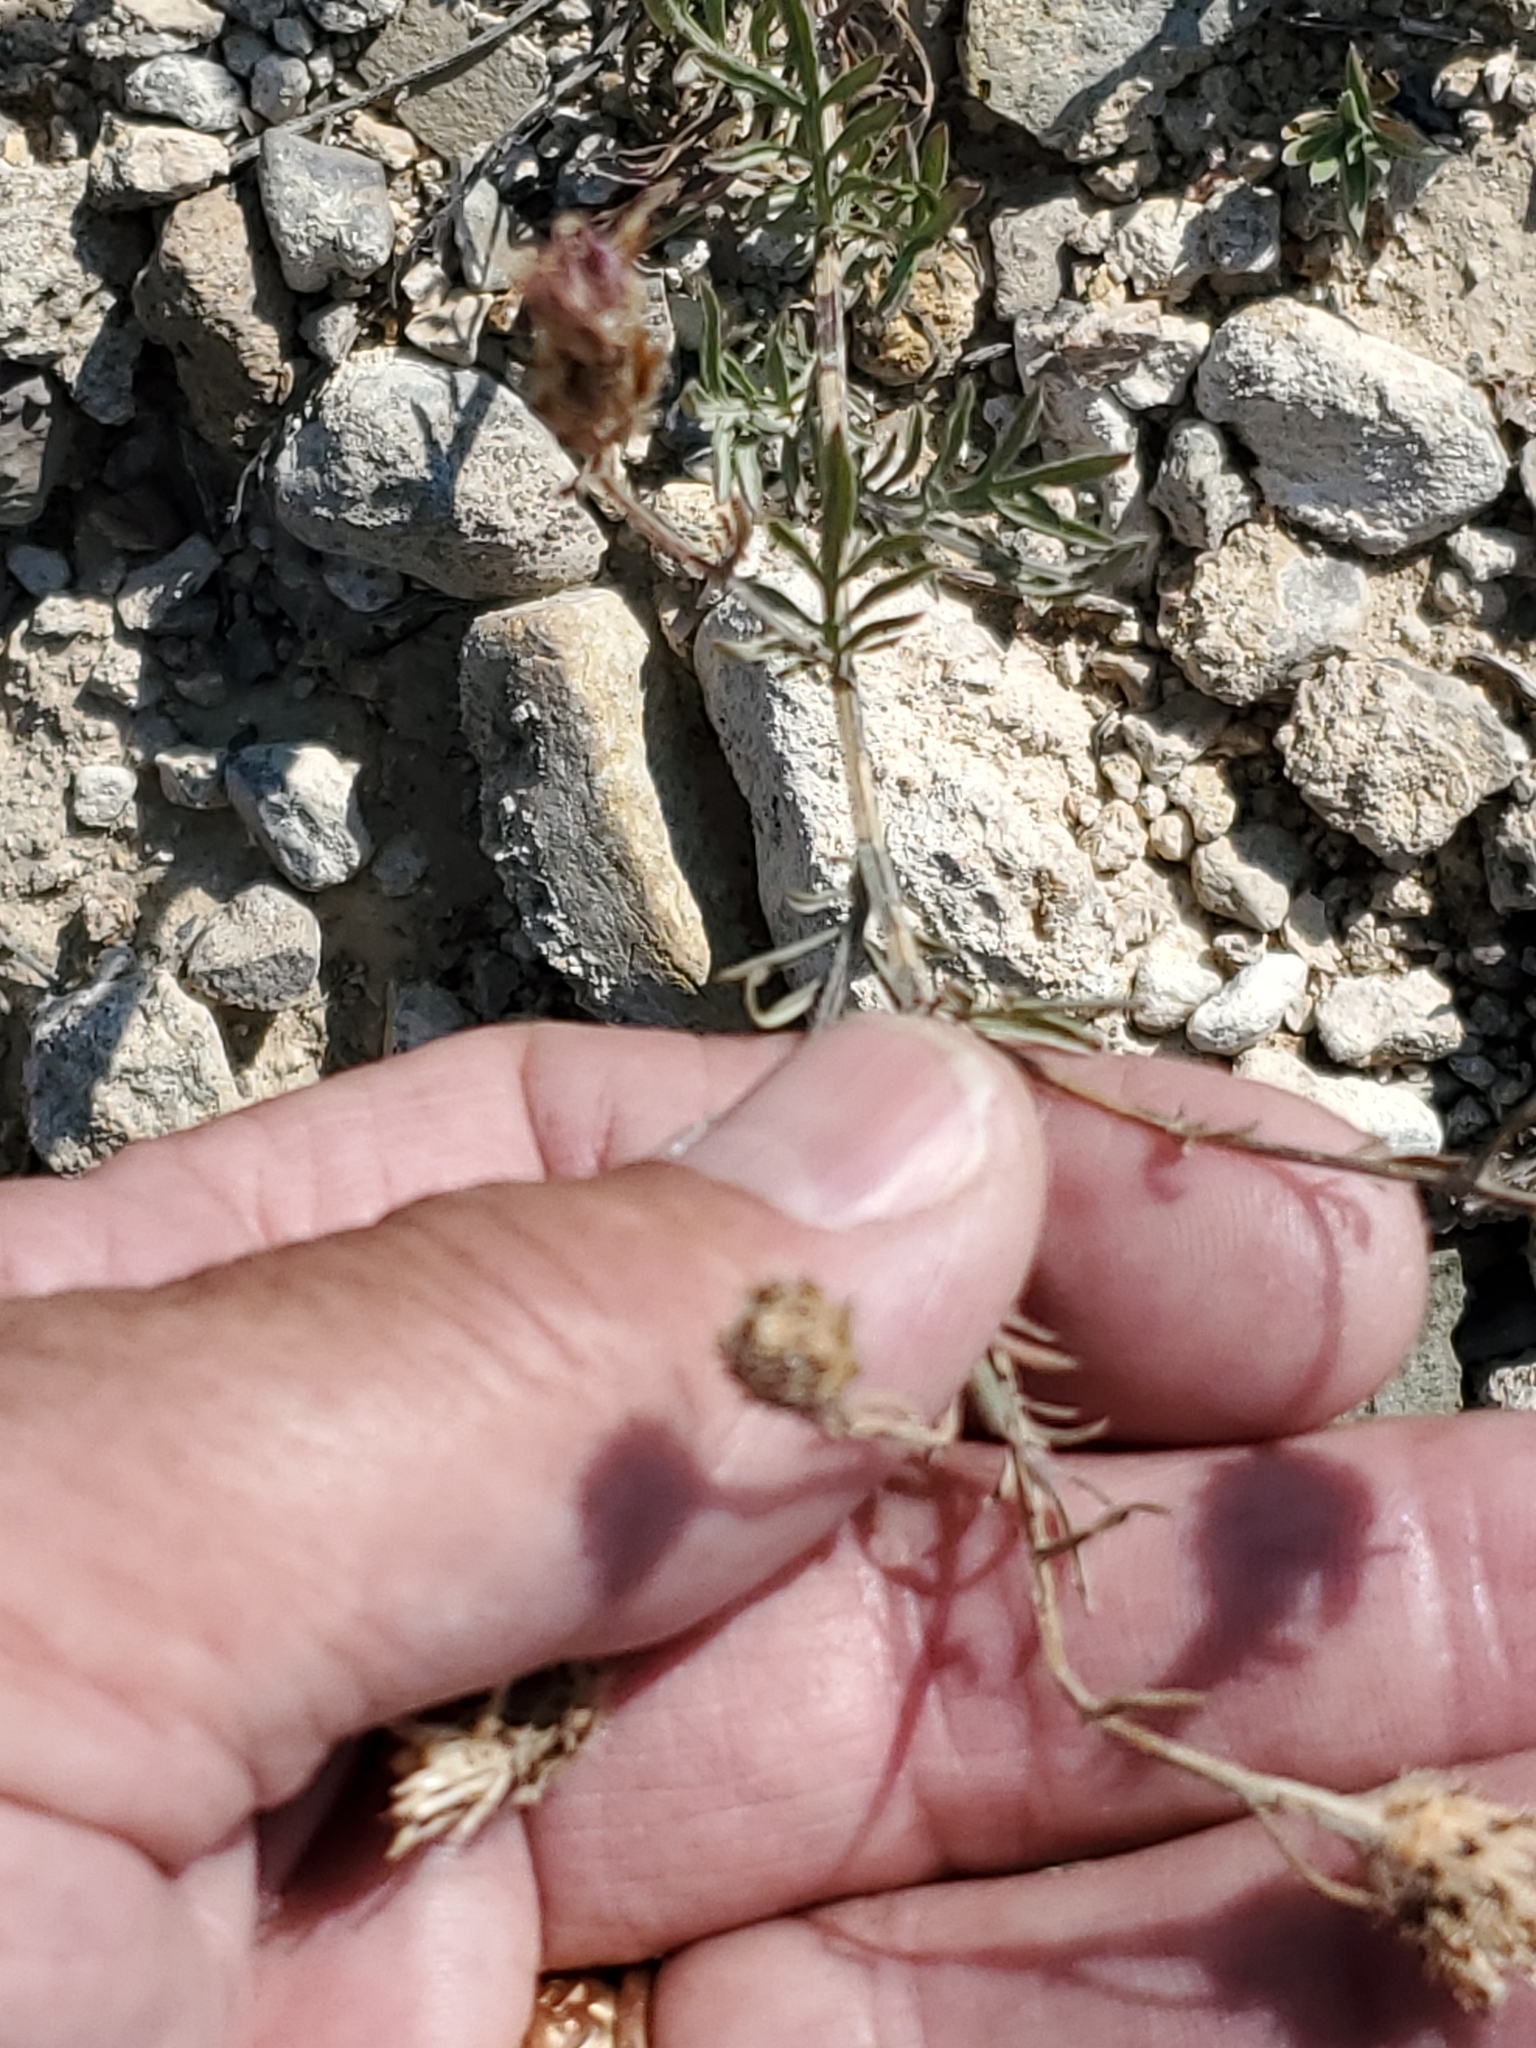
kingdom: Plantae
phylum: Tracheophyta
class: Magnoliopsida
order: Asterales
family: Asteraceae
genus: Centaurea
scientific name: Centaurea stoebe
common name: Spotted knapweed
